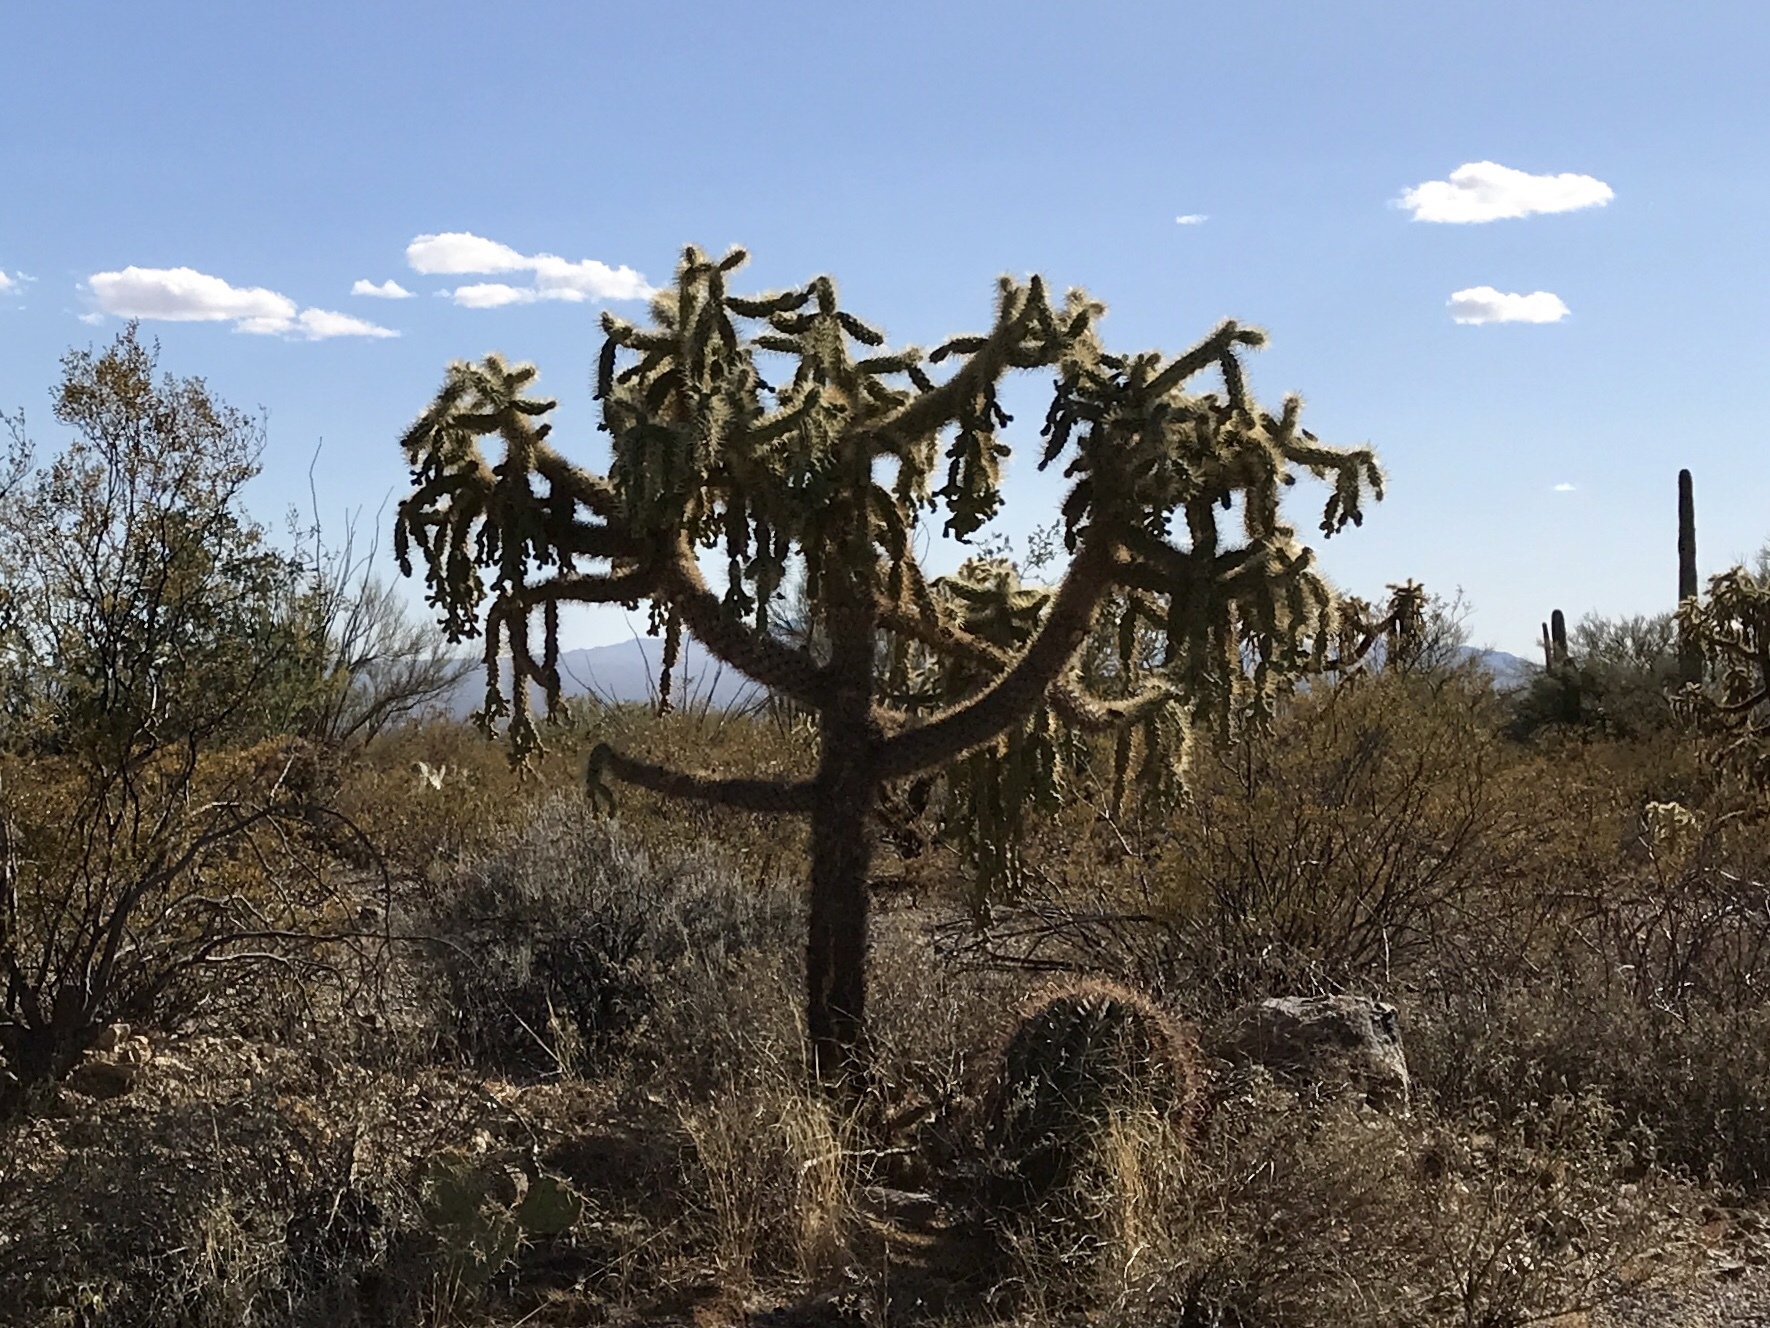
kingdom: Plantae
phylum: Tracheophyta
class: Magnoliopsida
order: Caryophyllales
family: Cactaceae
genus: Cylindropuntia
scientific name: Cylindropuntia fulgida
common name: Jumping cholla
